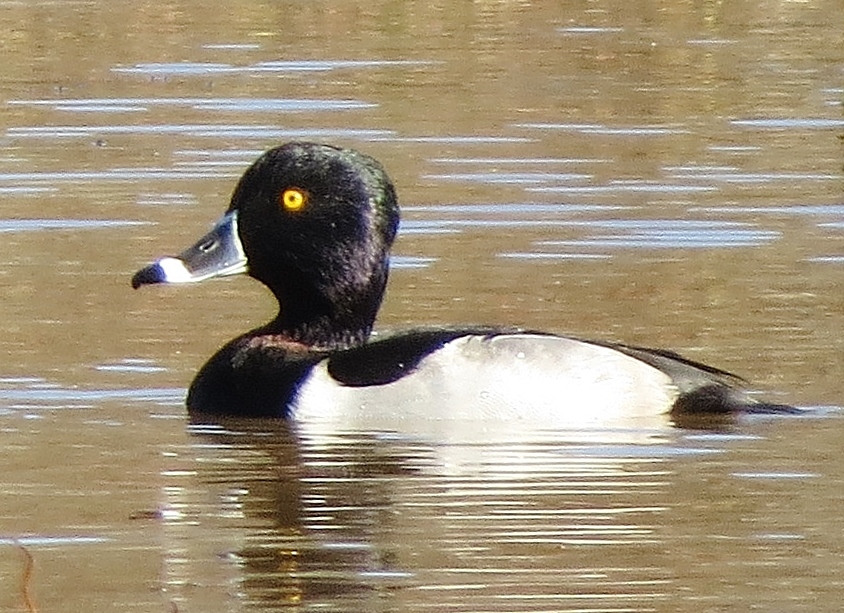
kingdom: Animalia
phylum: Chordata
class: Aves
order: Anseriformes
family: Anatidae
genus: Aythya
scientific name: Aythya collaris
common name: Ring-necked duck
